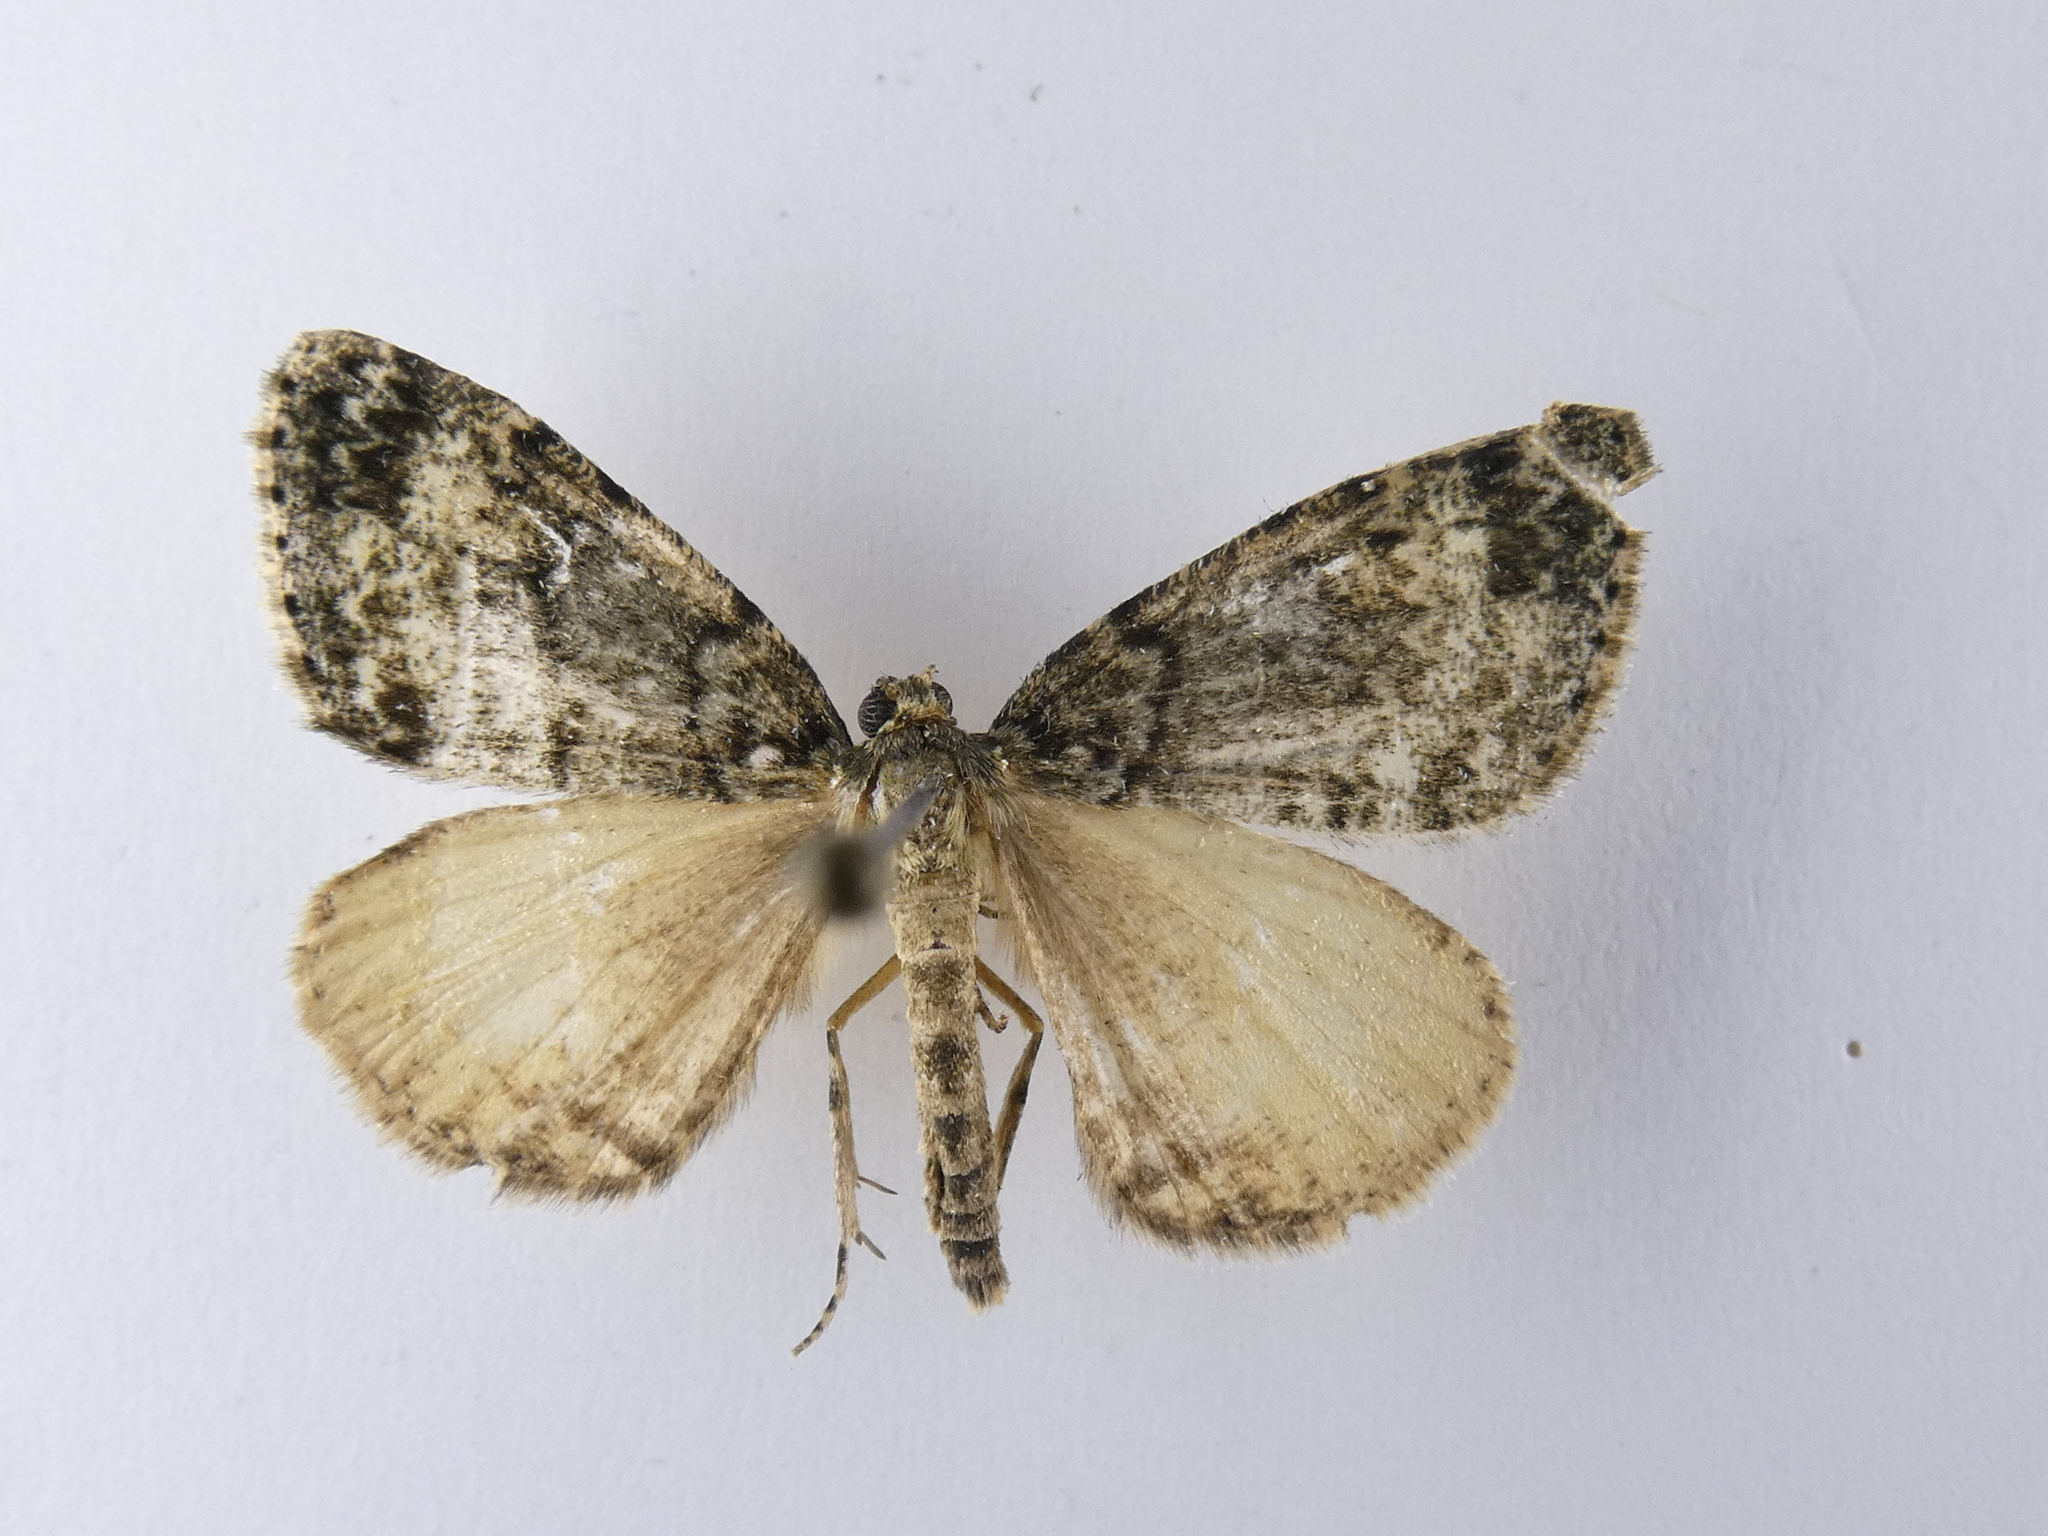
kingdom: Animalia
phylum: Arthropoda
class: Insecta
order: Lepidoptera
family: Geometridae
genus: Pseudocoremia
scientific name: Pseudocoremia indistincta
